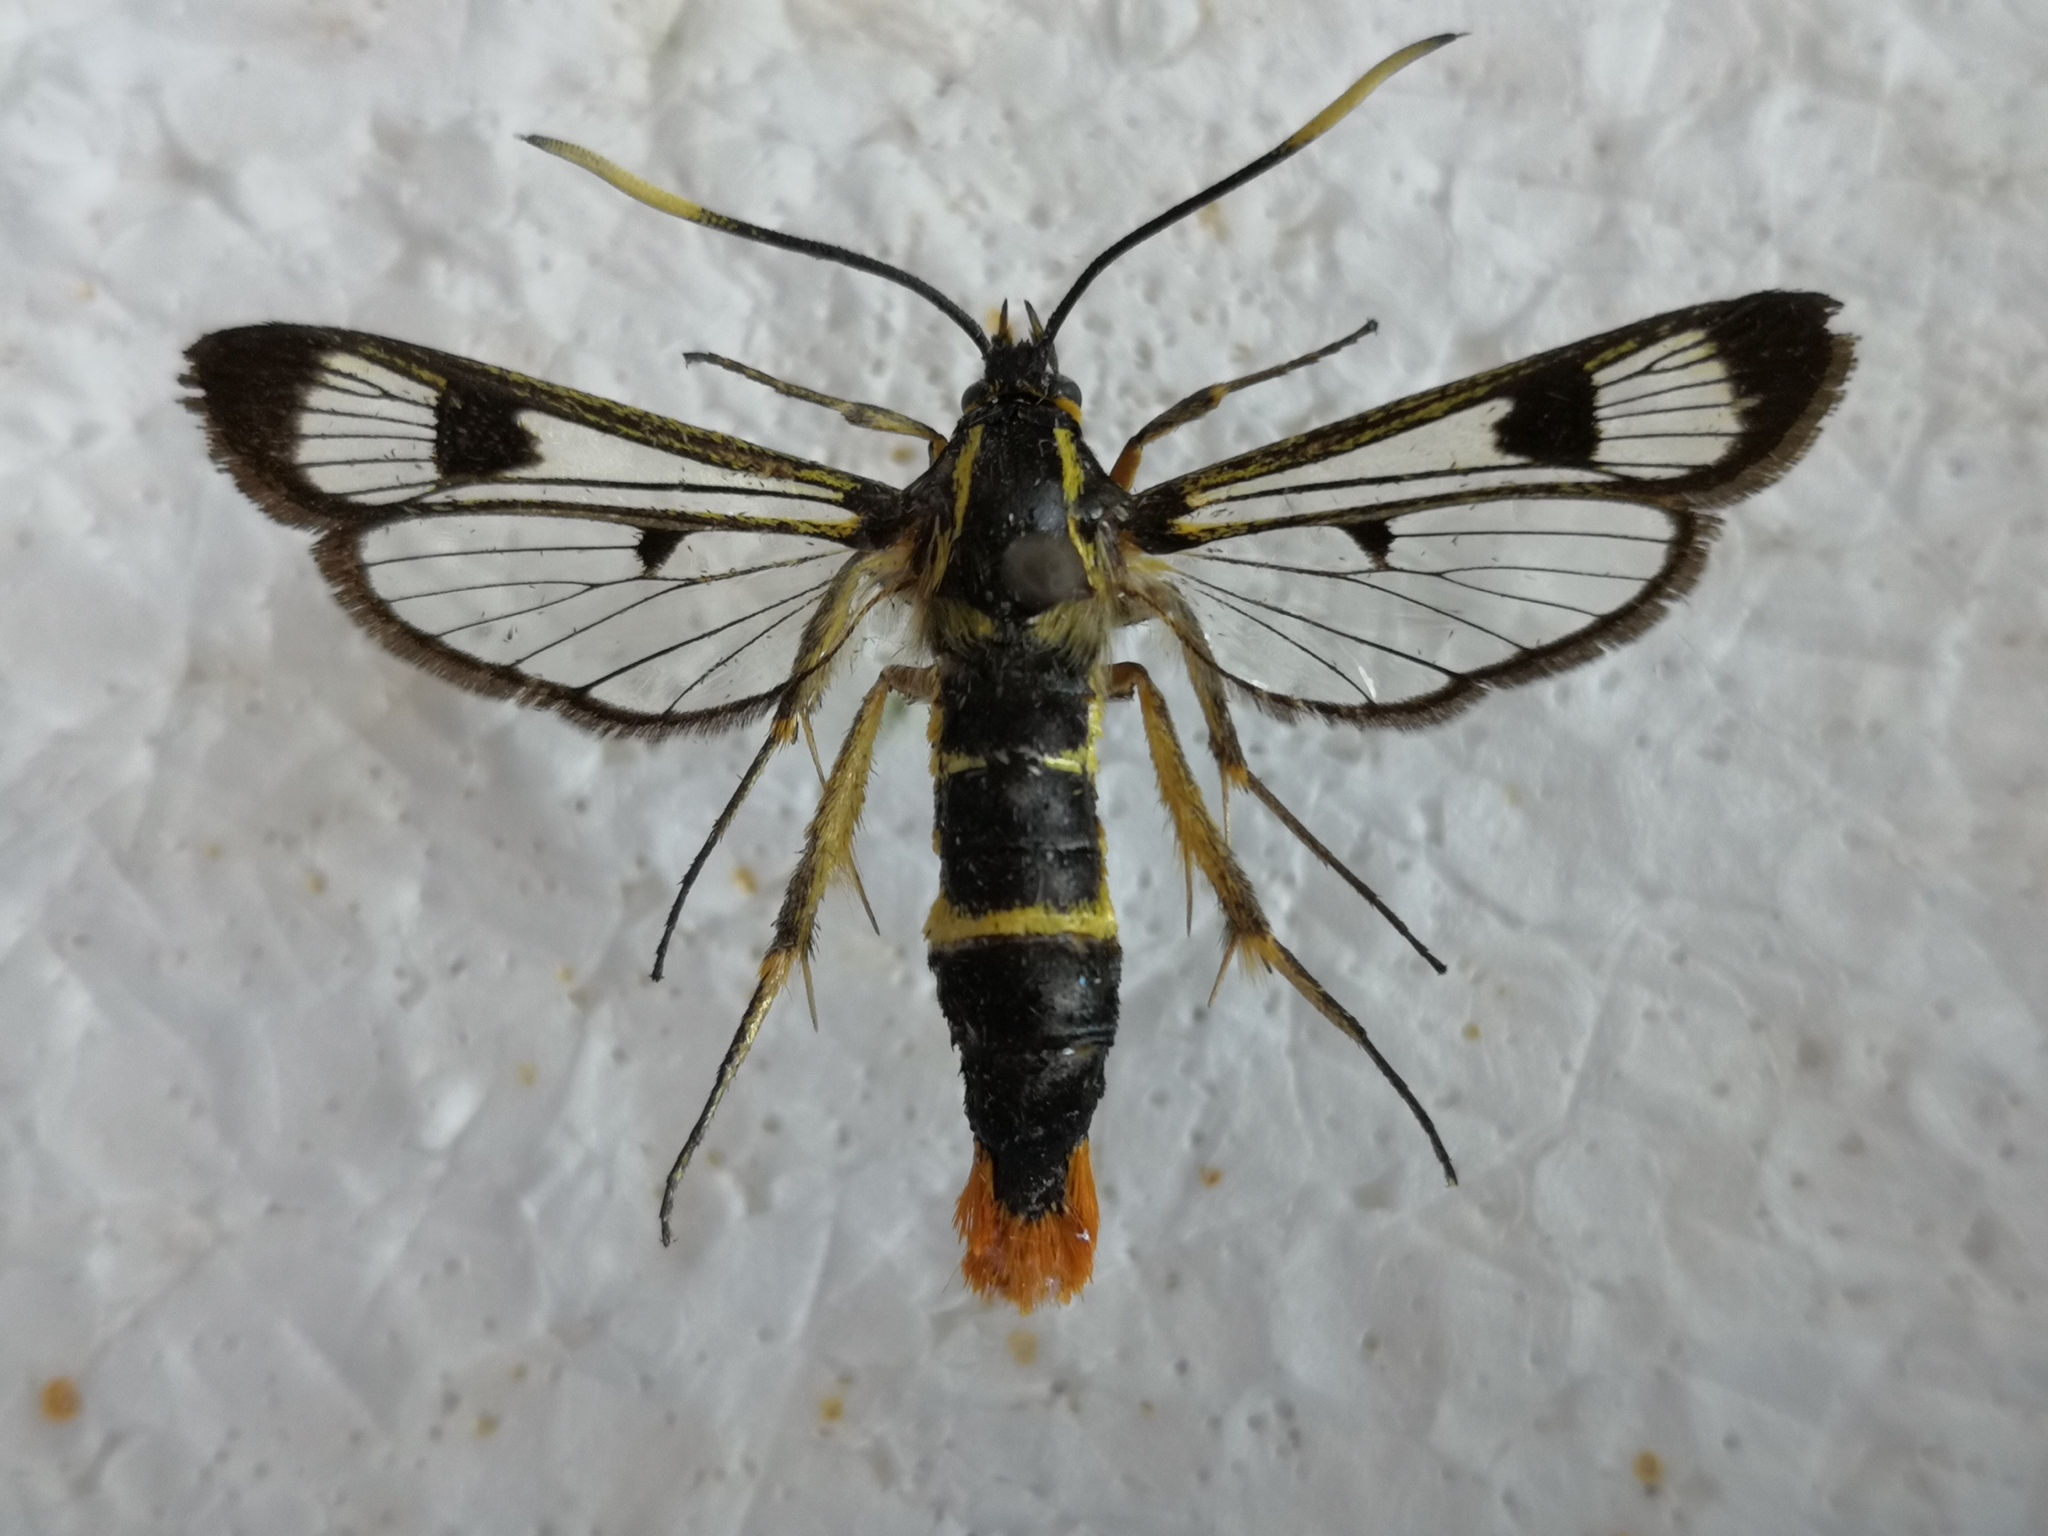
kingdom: Animalia
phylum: Arthropoda
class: Insecta
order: Lepidoptera
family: Sesiidae
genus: Synanthedon
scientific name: Synanthedon scoliaeformis
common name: Welsh clearwing
